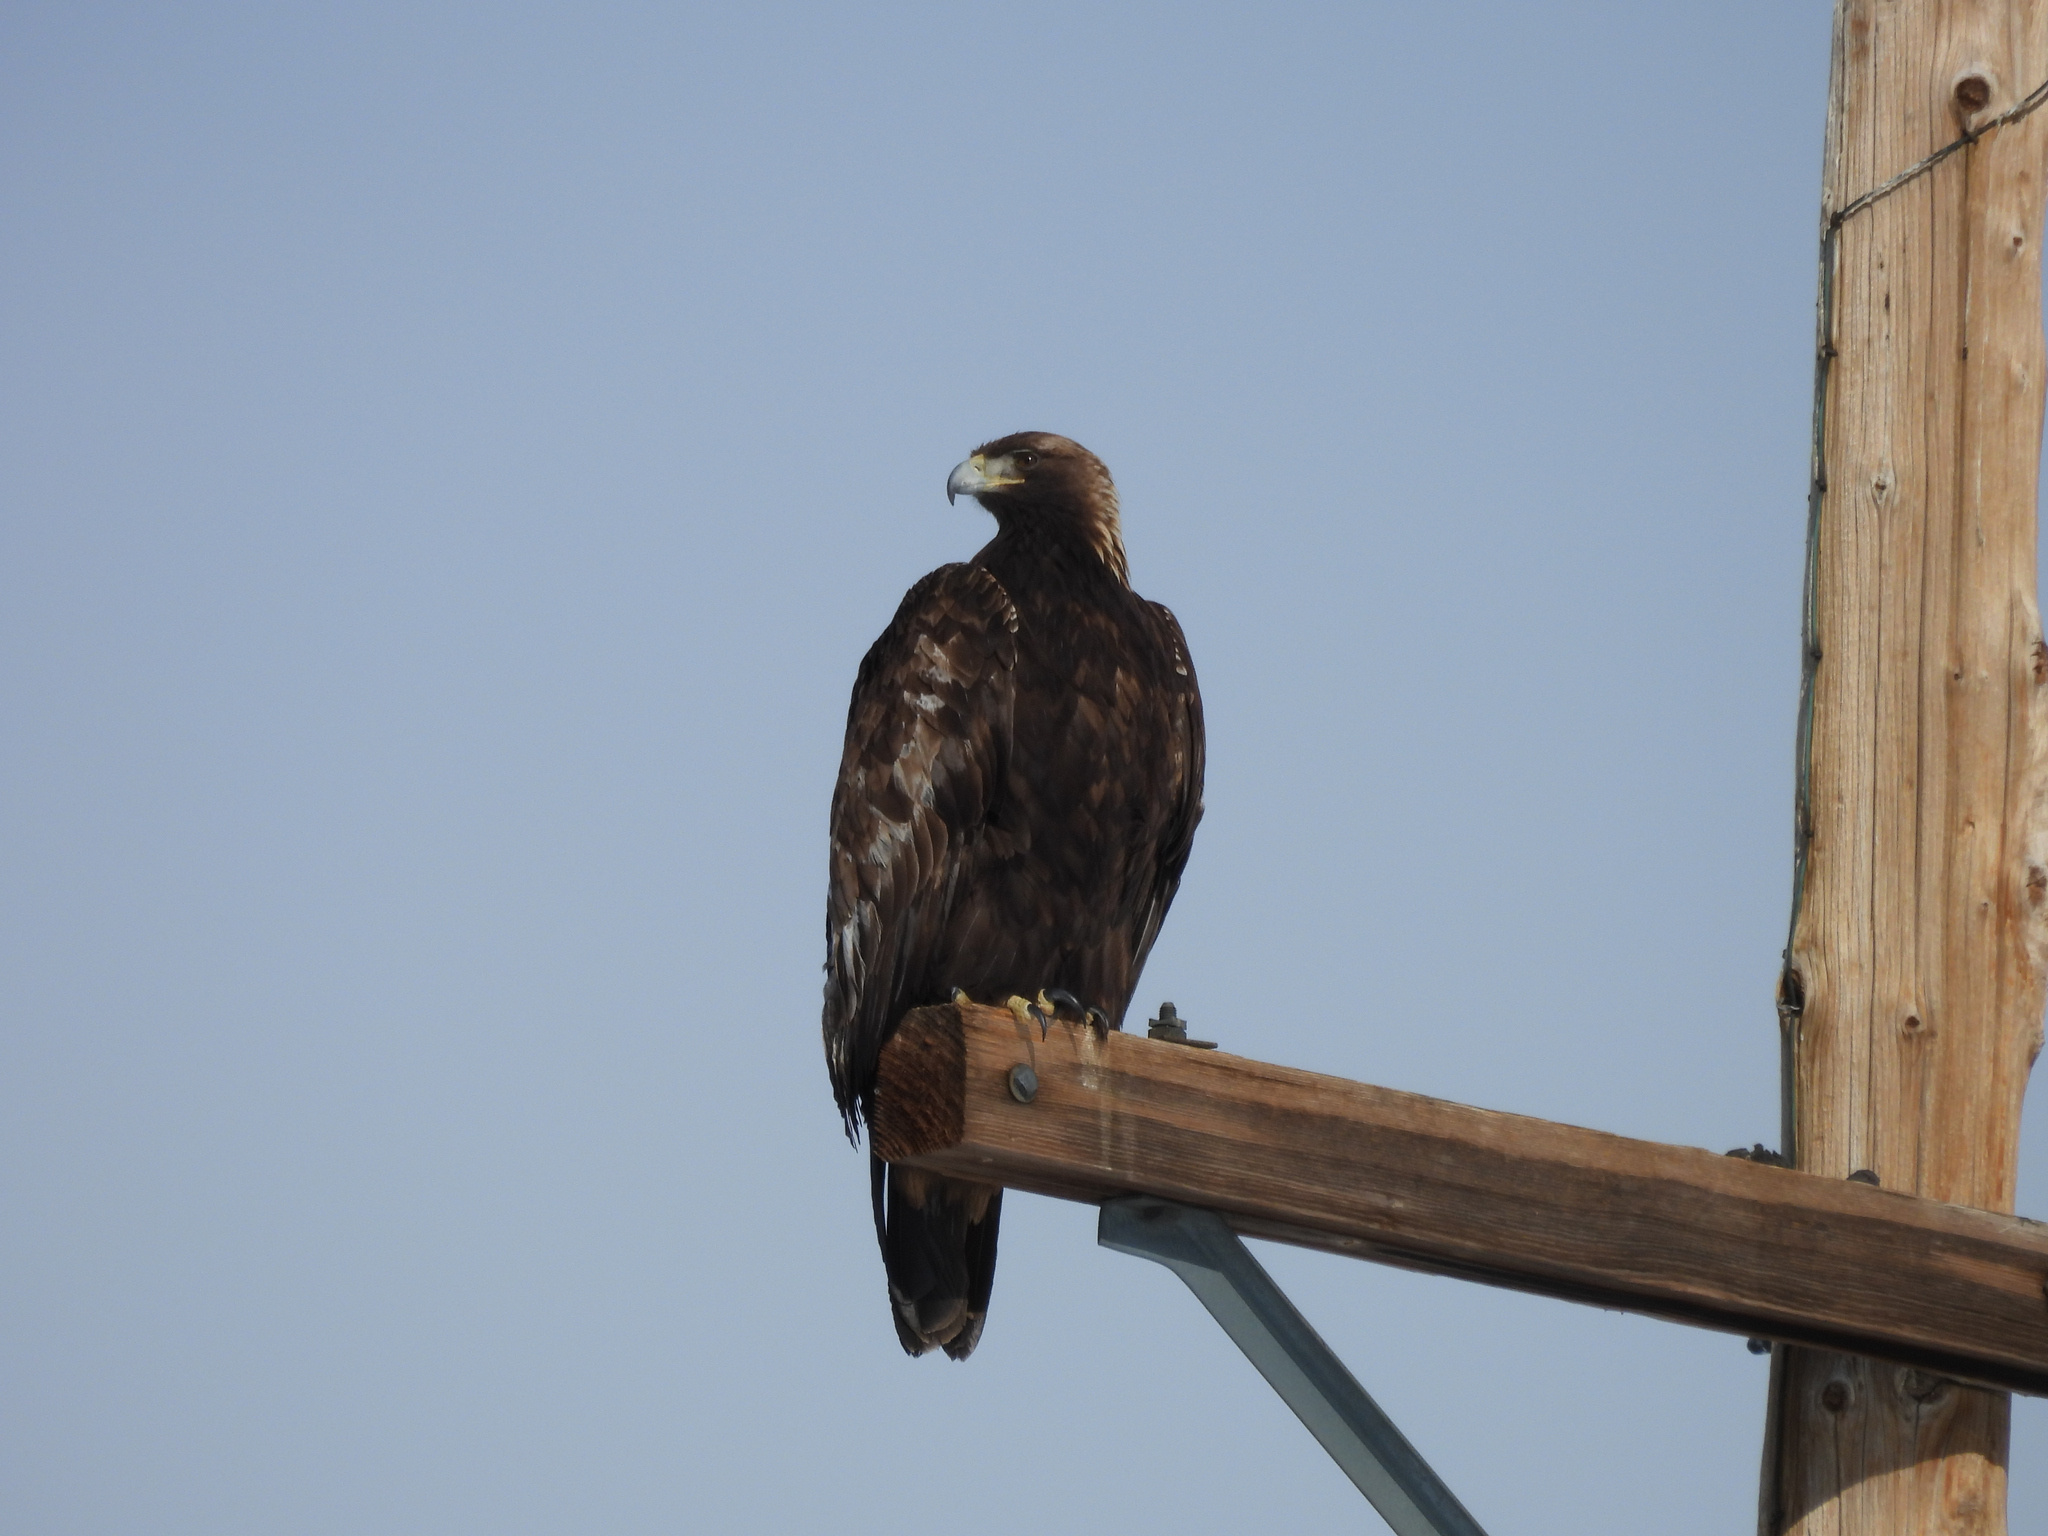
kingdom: Animalia
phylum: Chordata
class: Aves
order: Accipitriformes
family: Accipitridae
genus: Aquila
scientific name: Aquila chrysaetos
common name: Golden eagle
